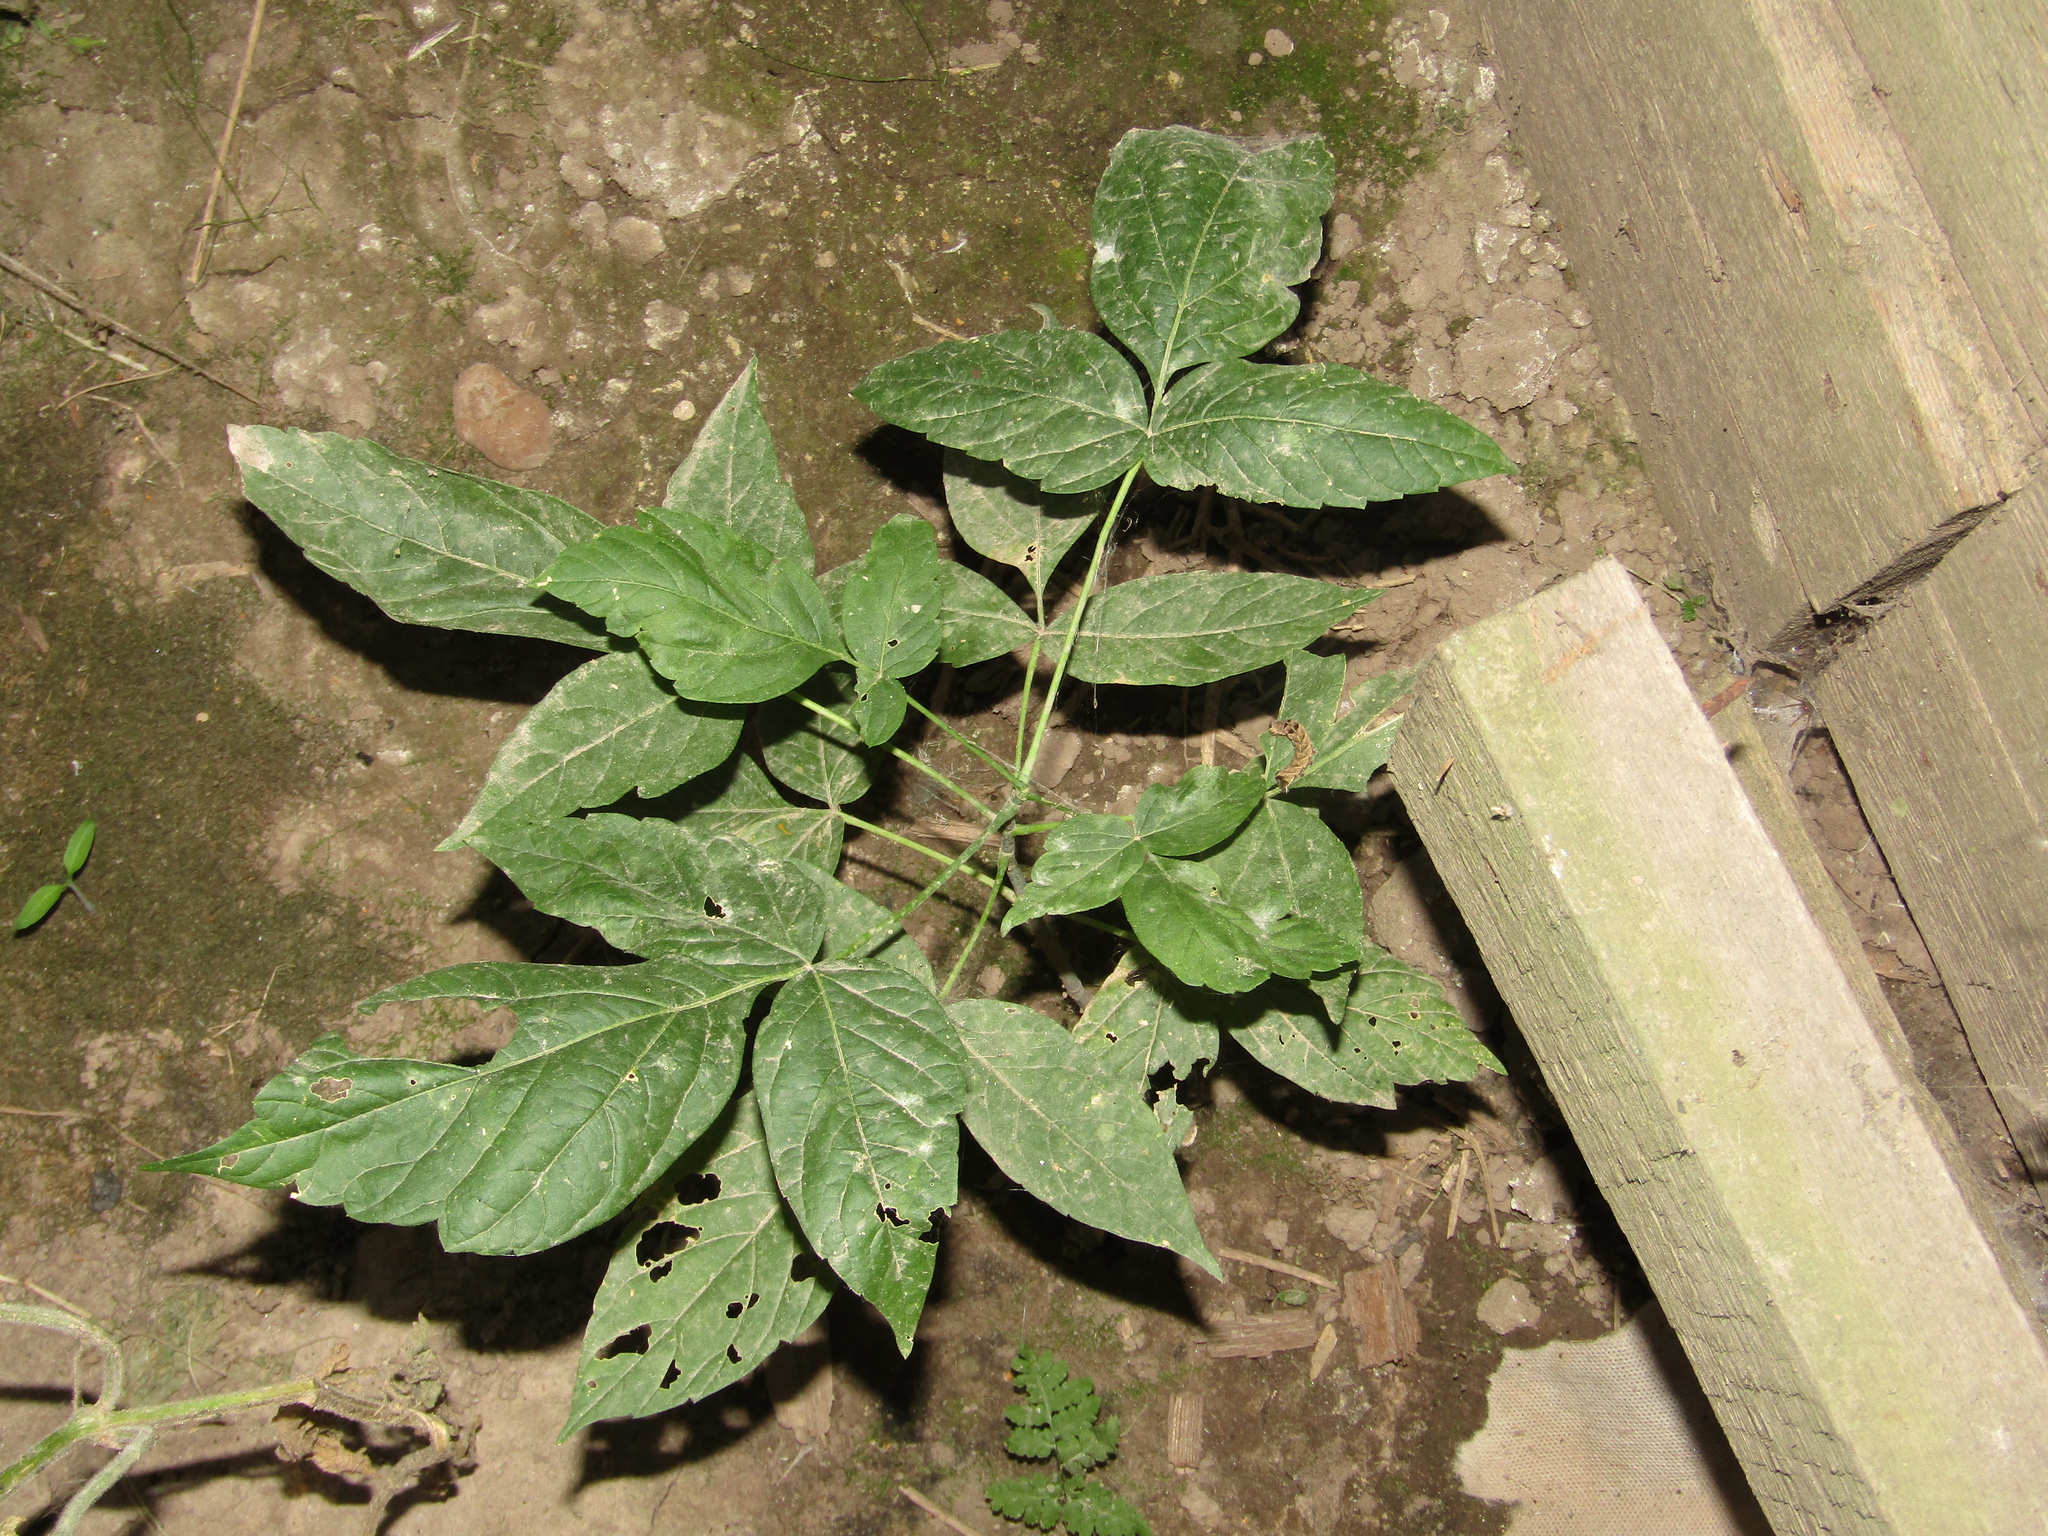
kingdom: Plantae
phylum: Tracheophyta
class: Magnoliopsida
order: Sapindales
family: Sapindaceae
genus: Acer
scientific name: Acer negundo
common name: Ashleaf maple
